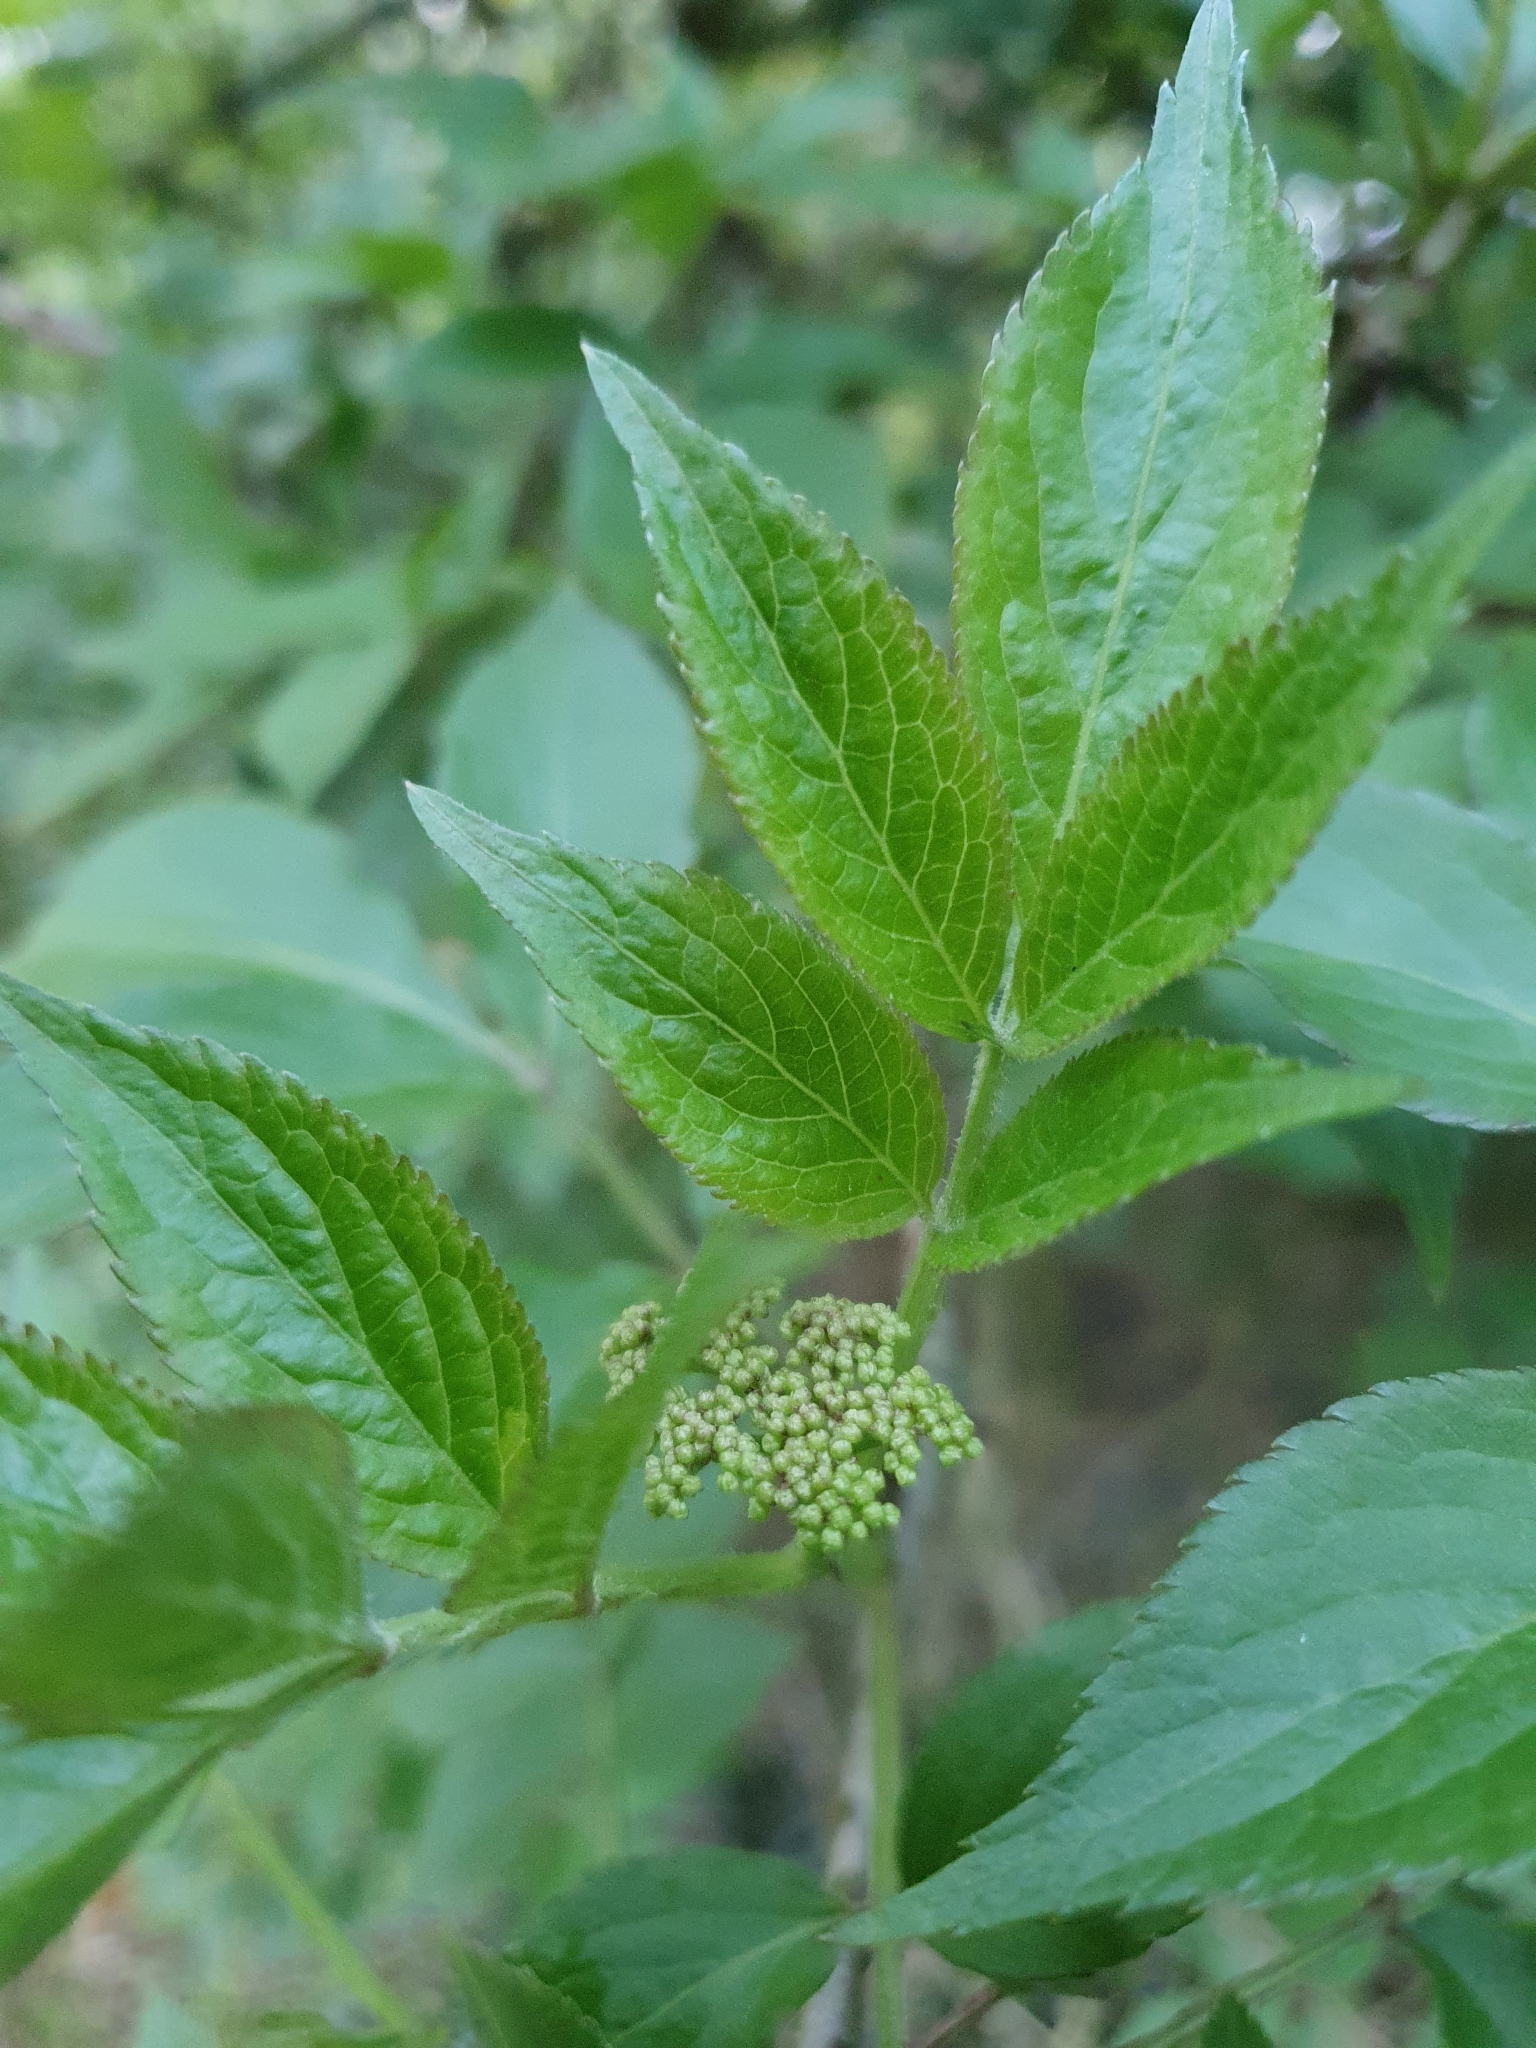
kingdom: Plantae
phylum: Tracheophyta
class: Magnoliopsida
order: Dipsacales
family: Viburnaceae
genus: Sambucus
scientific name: Sambucus nigra
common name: Elder
